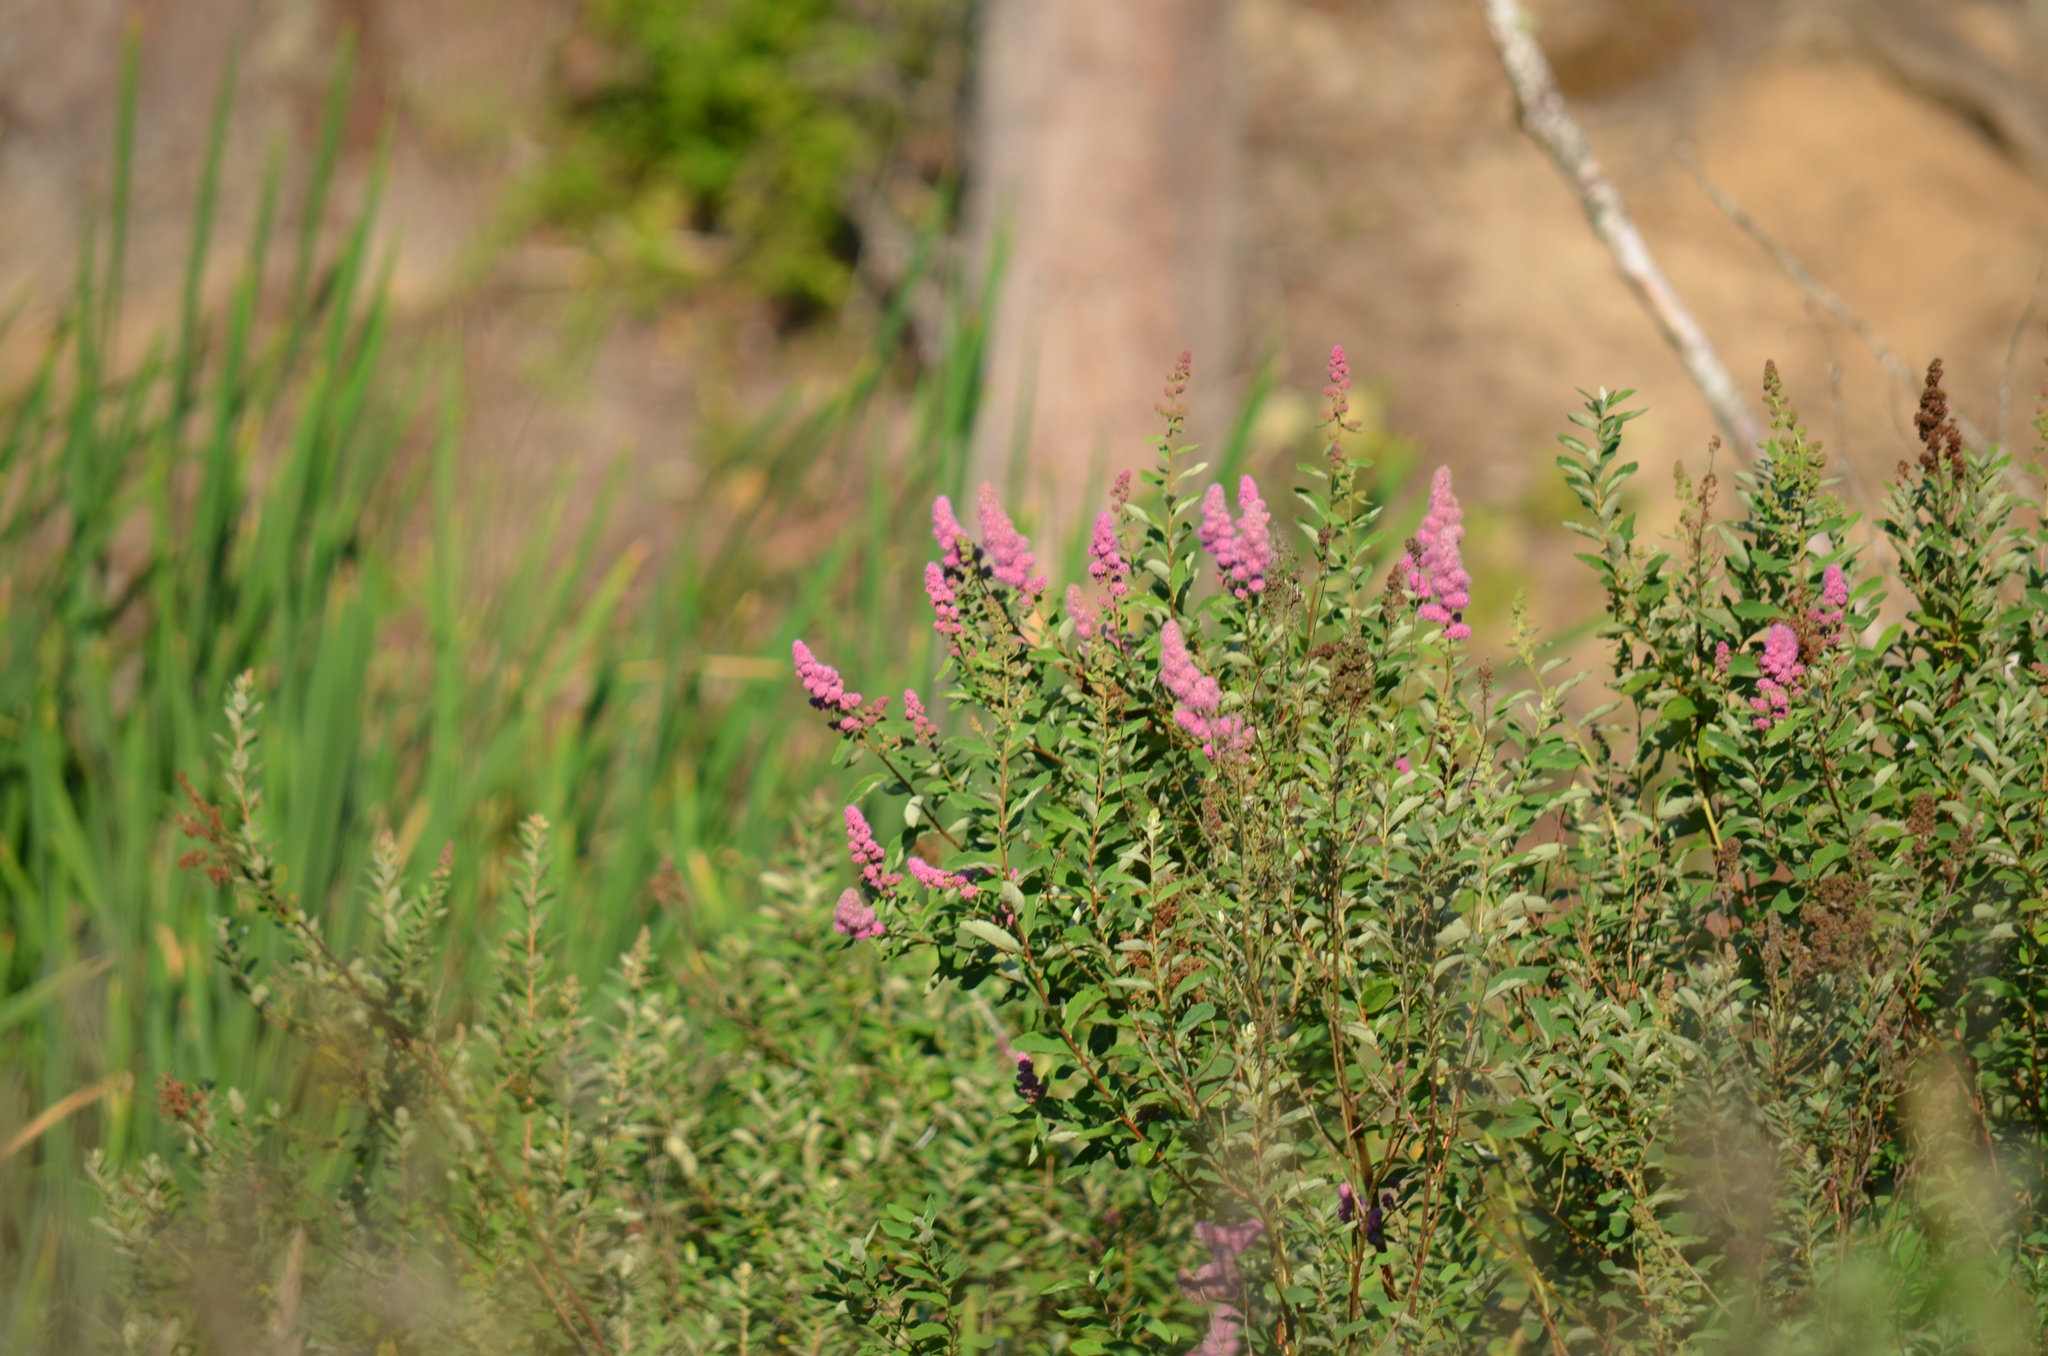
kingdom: Plantae
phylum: Tracheophyta
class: Magnoliopsida
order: Rosales
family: Rosaceae
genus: Spiraea
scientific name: Spiraea douglasii
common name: Steeplebush
